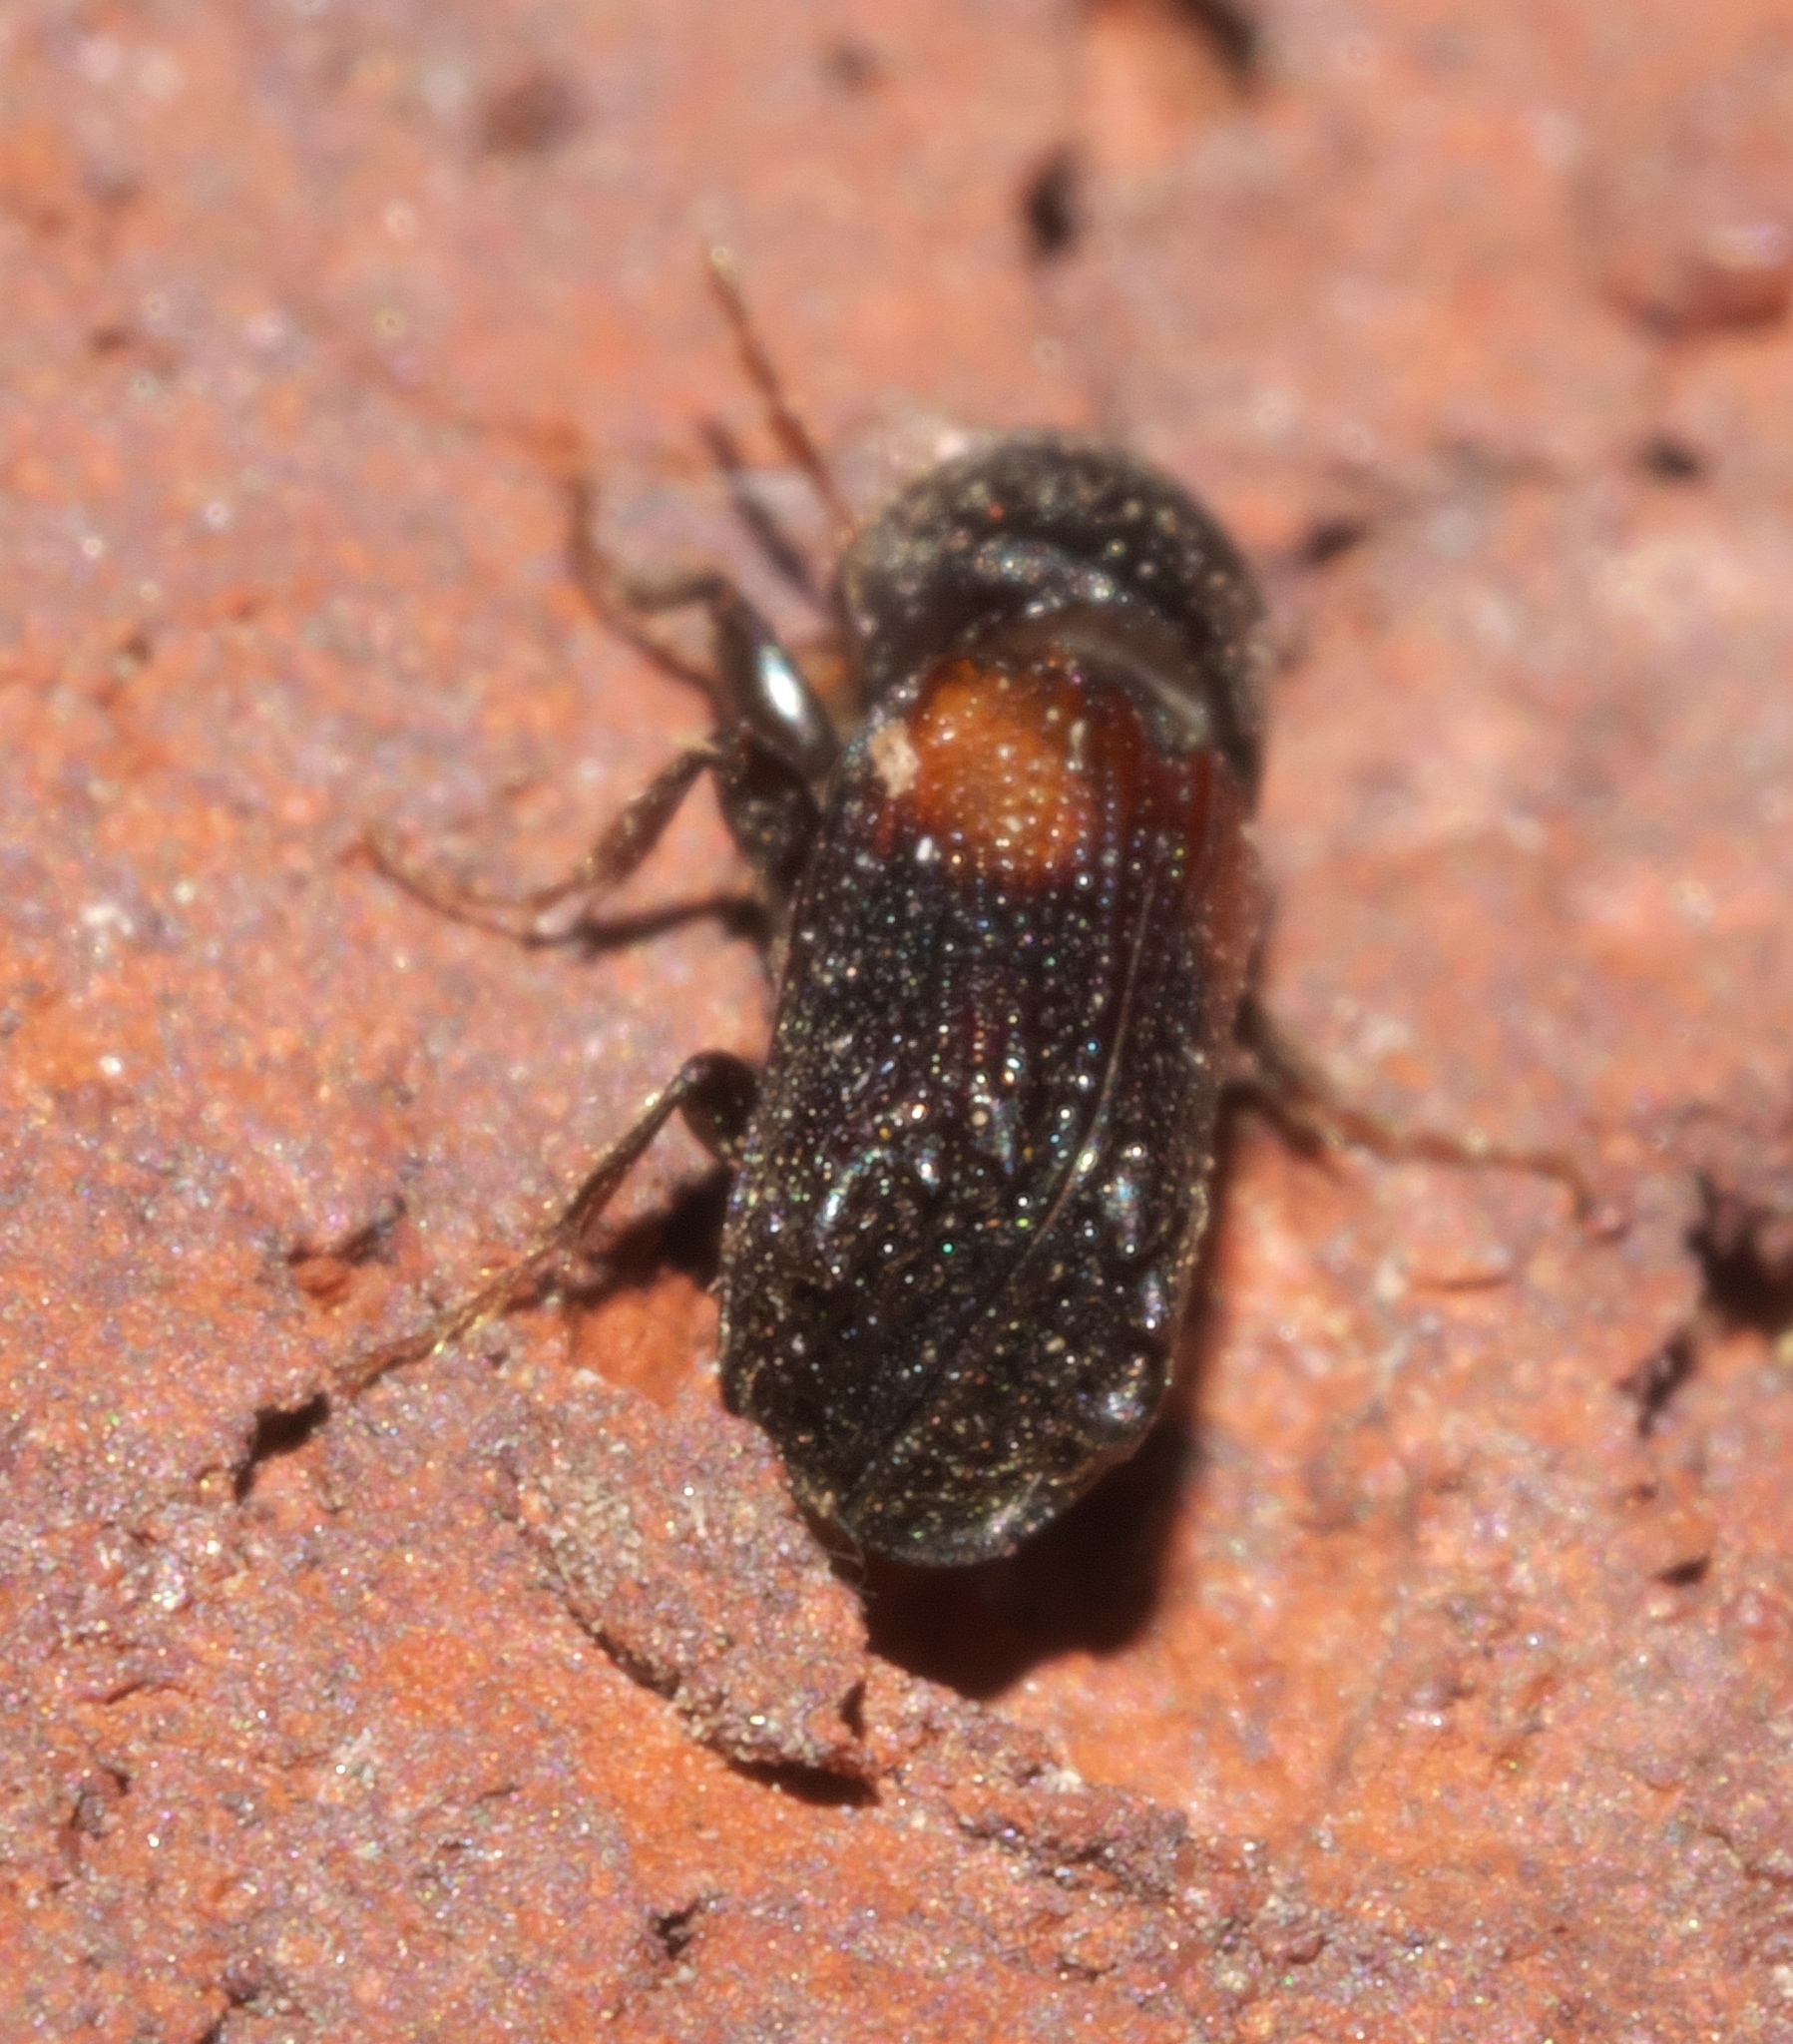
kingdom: Animalia
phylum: Arthropoda
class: Insecta
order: Coleoptera
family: Bostrichidae
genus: Xylobiops
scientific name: Xylobiops basilaris
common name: Red-shouldered bostrichid
